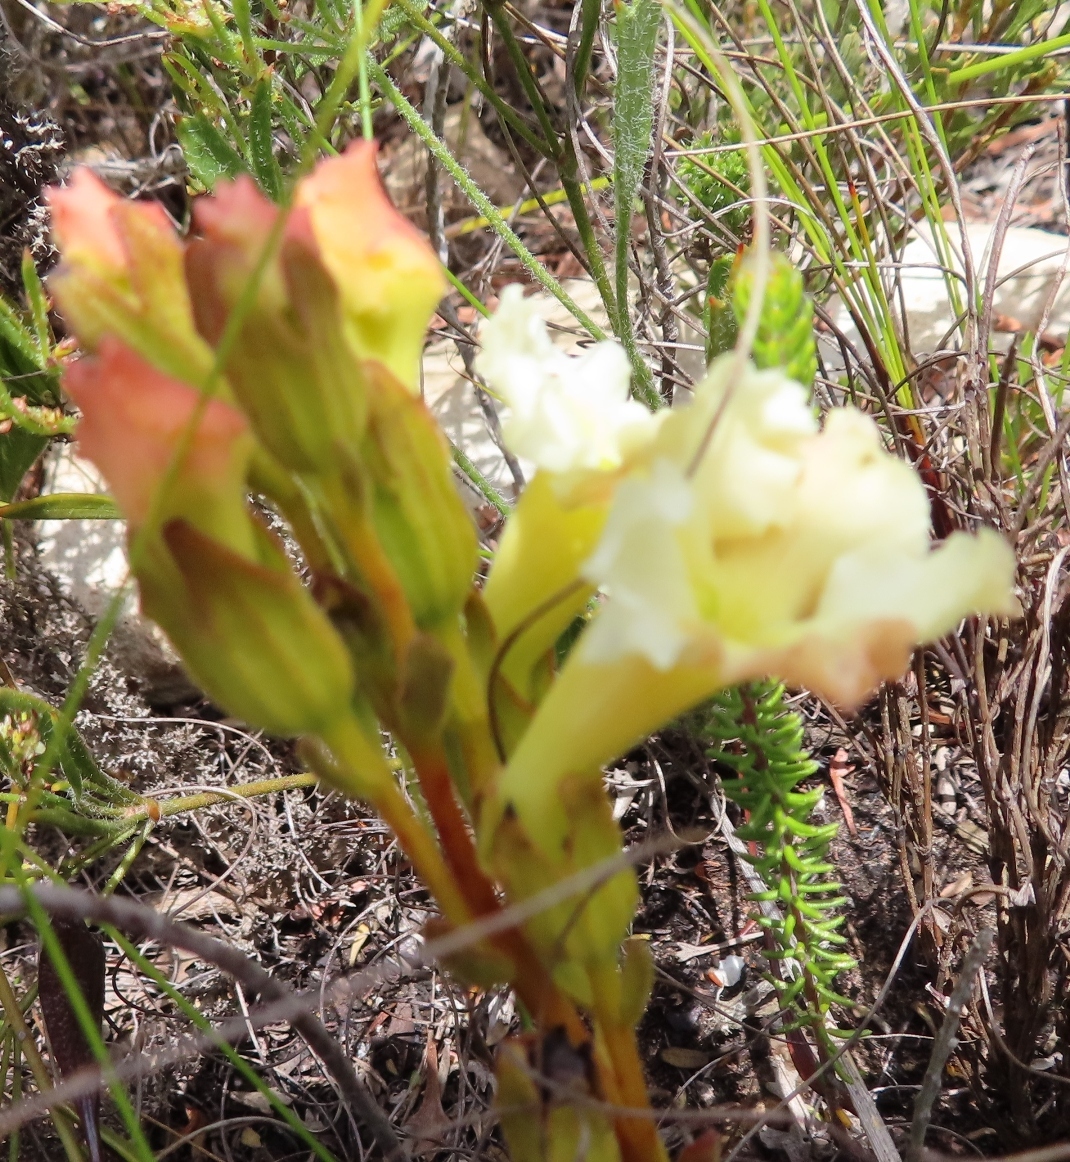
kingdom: Plantae
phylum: Tracheophyta
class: Magnoliopsida
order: Lamiales
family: Orobanchaceae
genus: Harveya
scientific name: Harveya capensis
